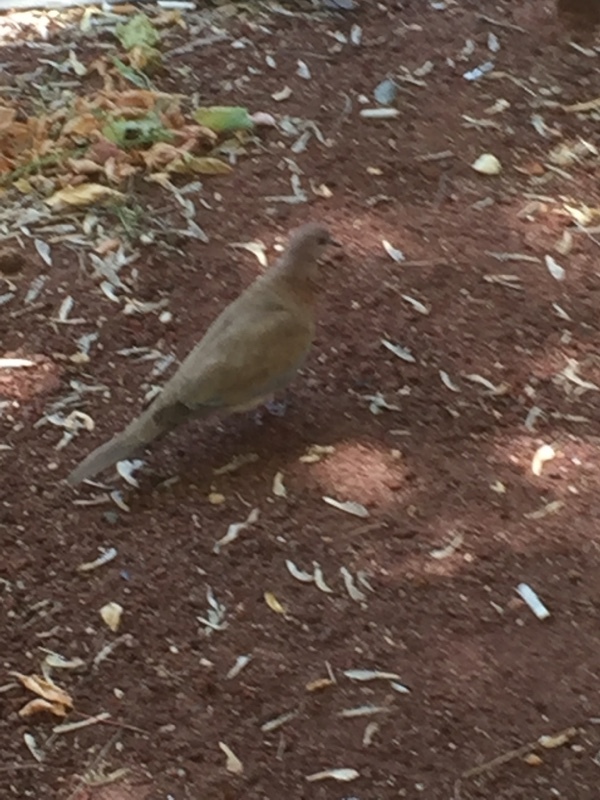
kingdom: Animalia
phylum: Chordata
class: Aves
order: Columbiformes
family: Columbidae
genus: Spilopelia
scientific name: Spilopelia senegalensis
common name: Laughing dove
